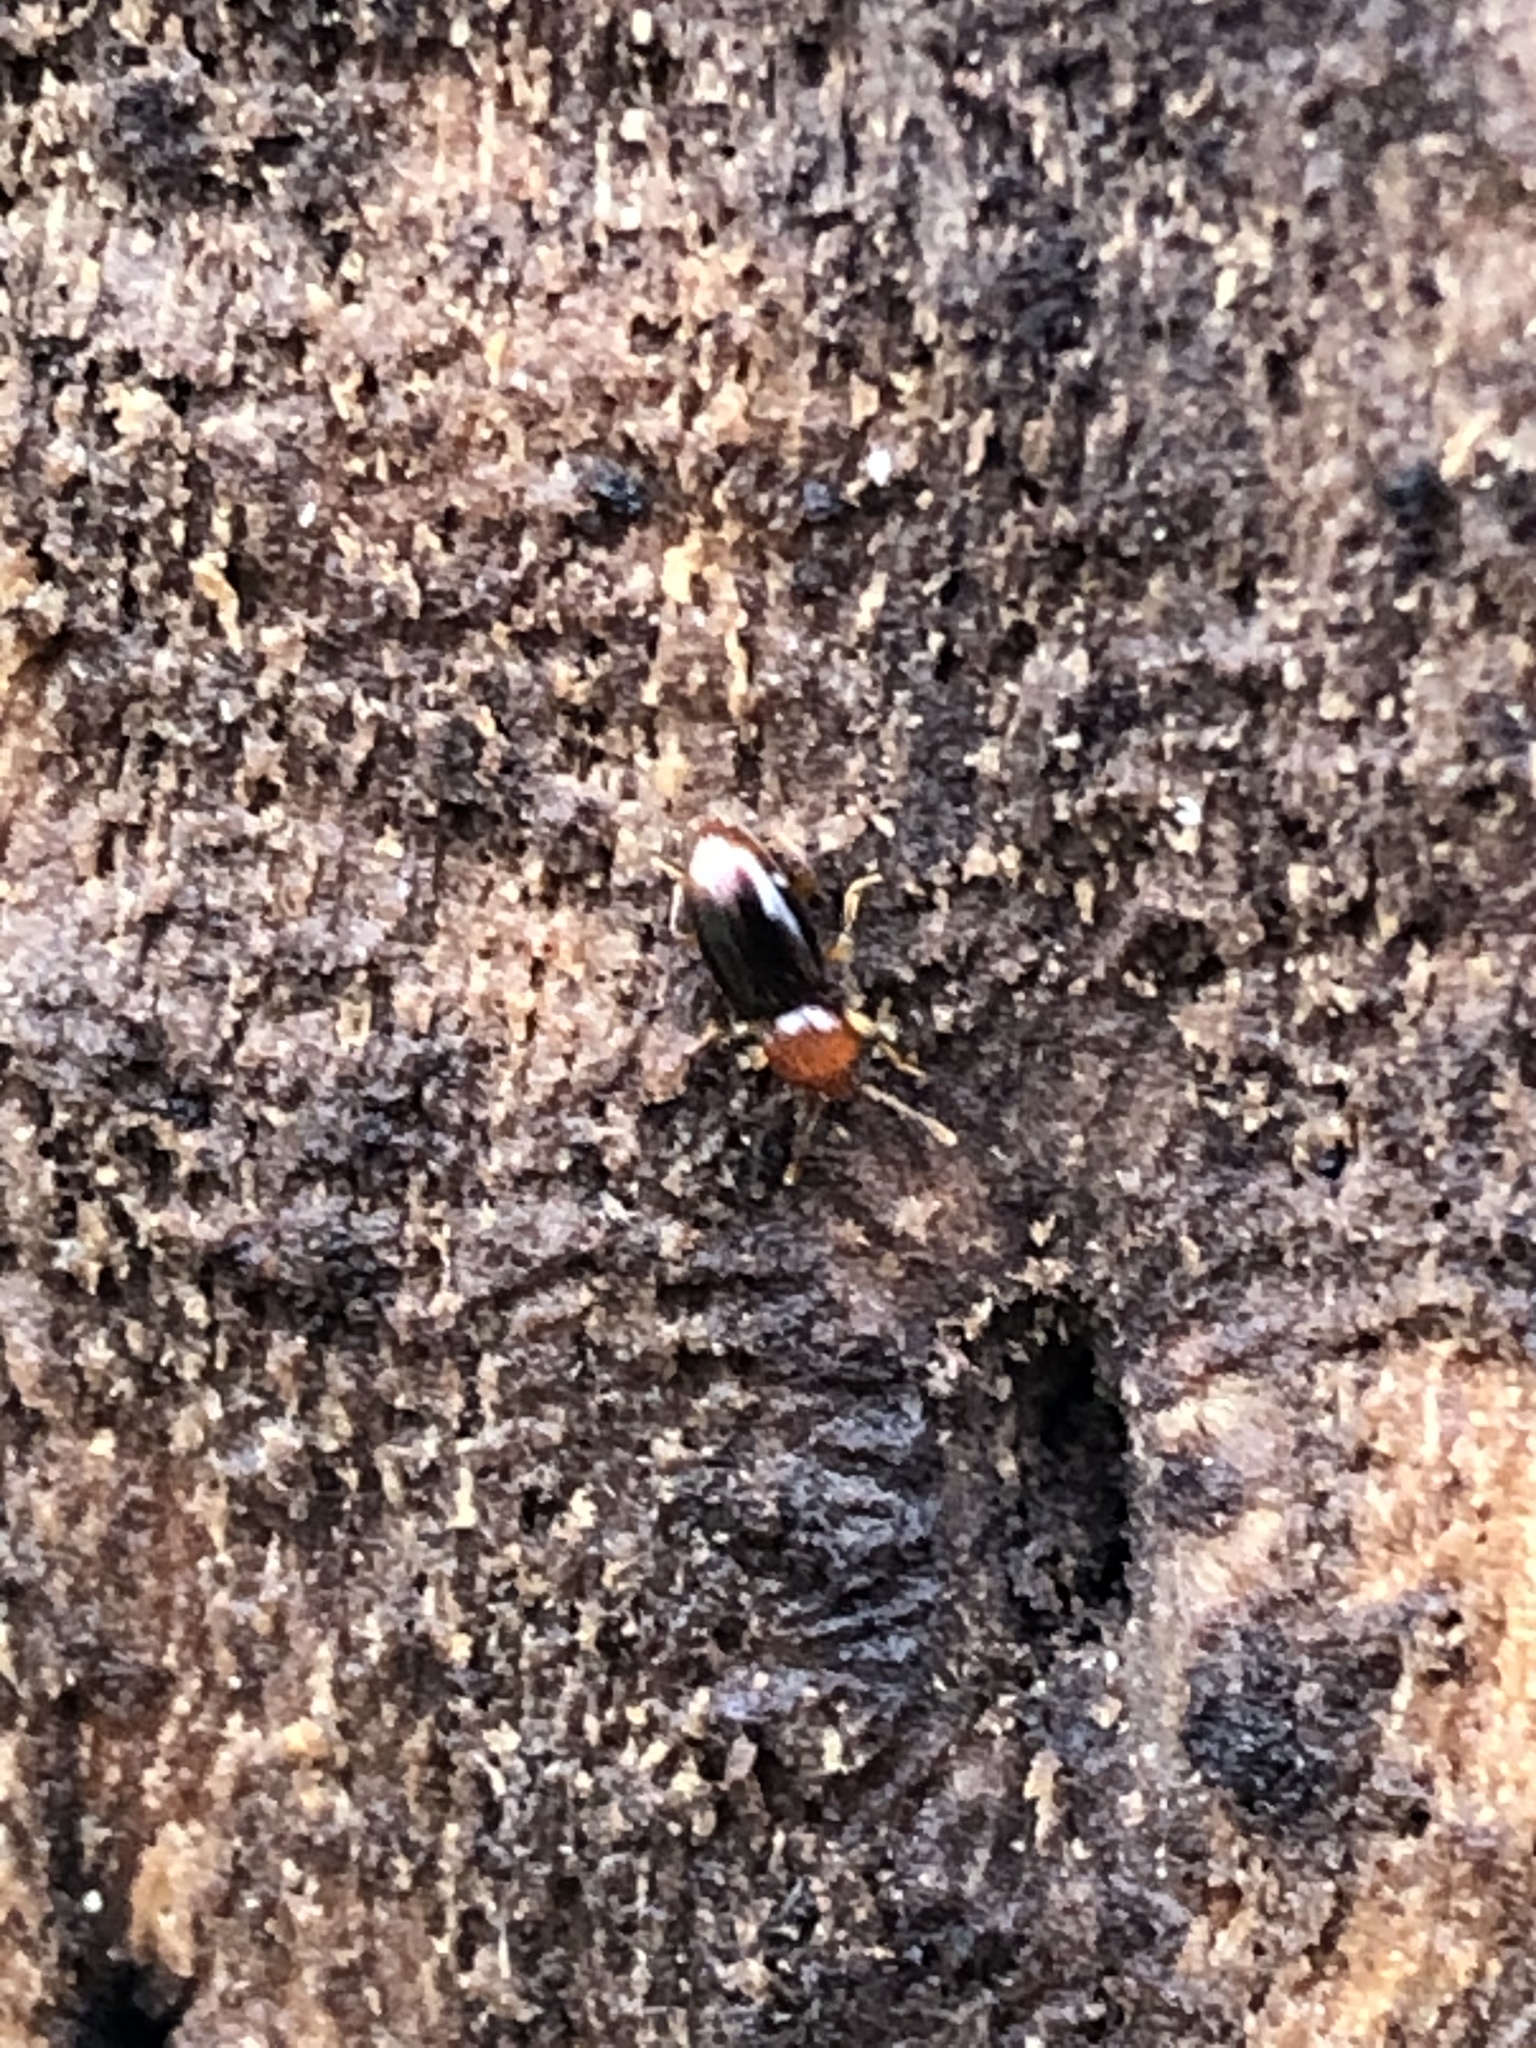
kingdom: Animalia
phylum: Arthropoda
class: Insecta
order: Coleoptera
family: Endomychidae
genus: Rhanidea
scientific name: Rhanidea unicolor
